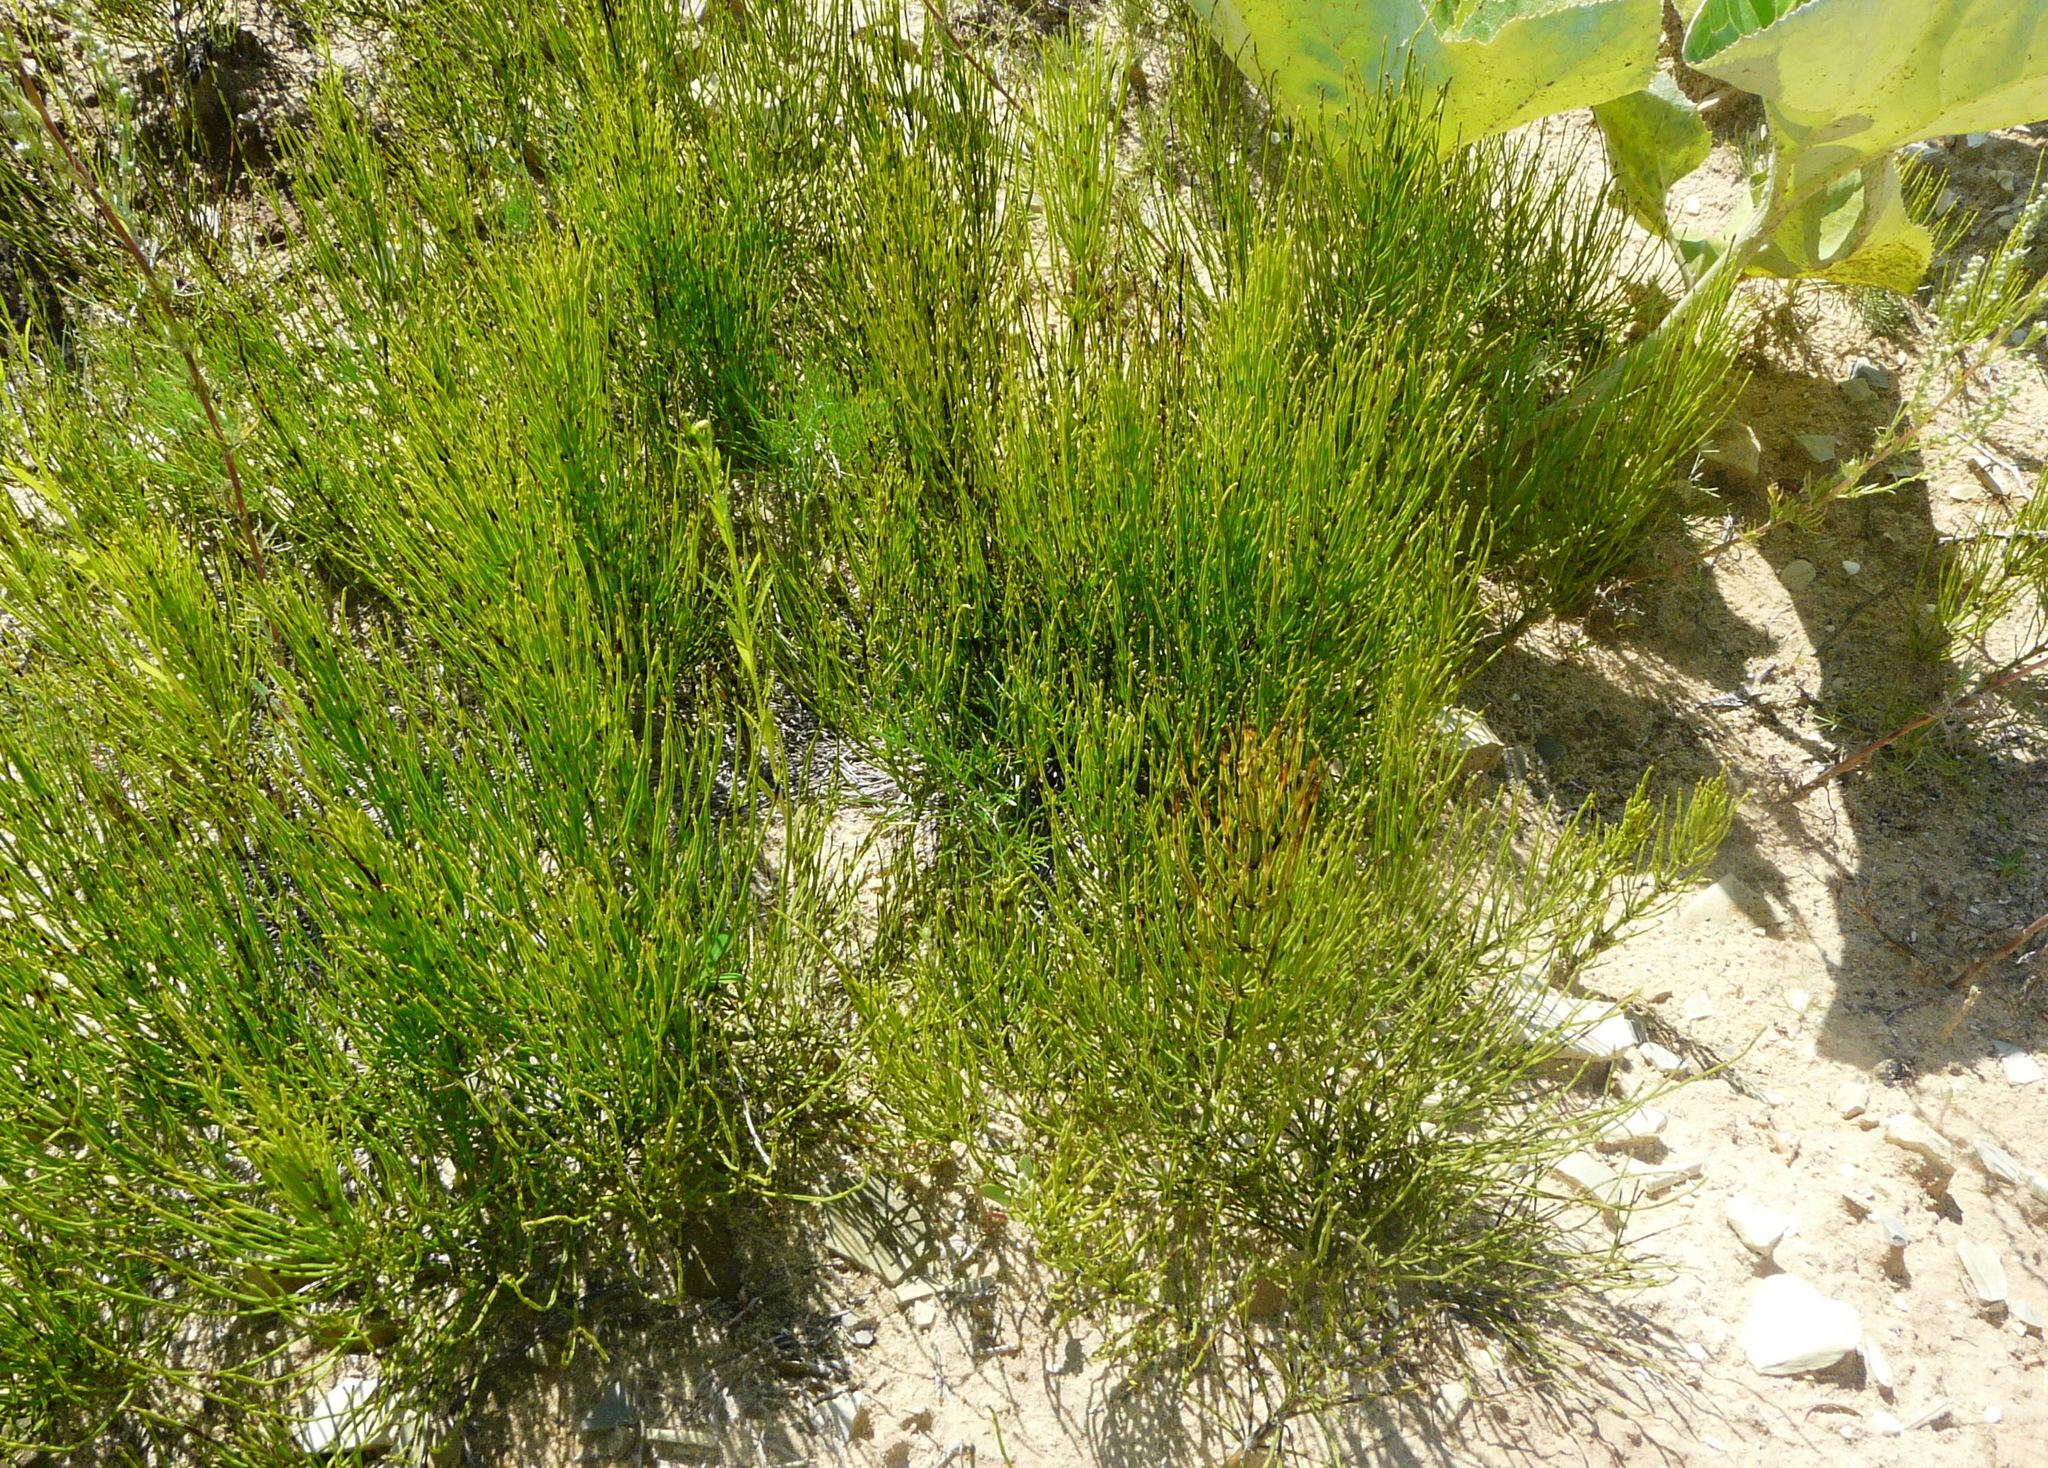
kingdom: Plantae
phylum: Tracheophyta
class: Polypodiopsida
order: Equisetales
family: Equisetaceae
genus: Equisetum
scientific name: Equisetum arvense
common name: Field horsetail
